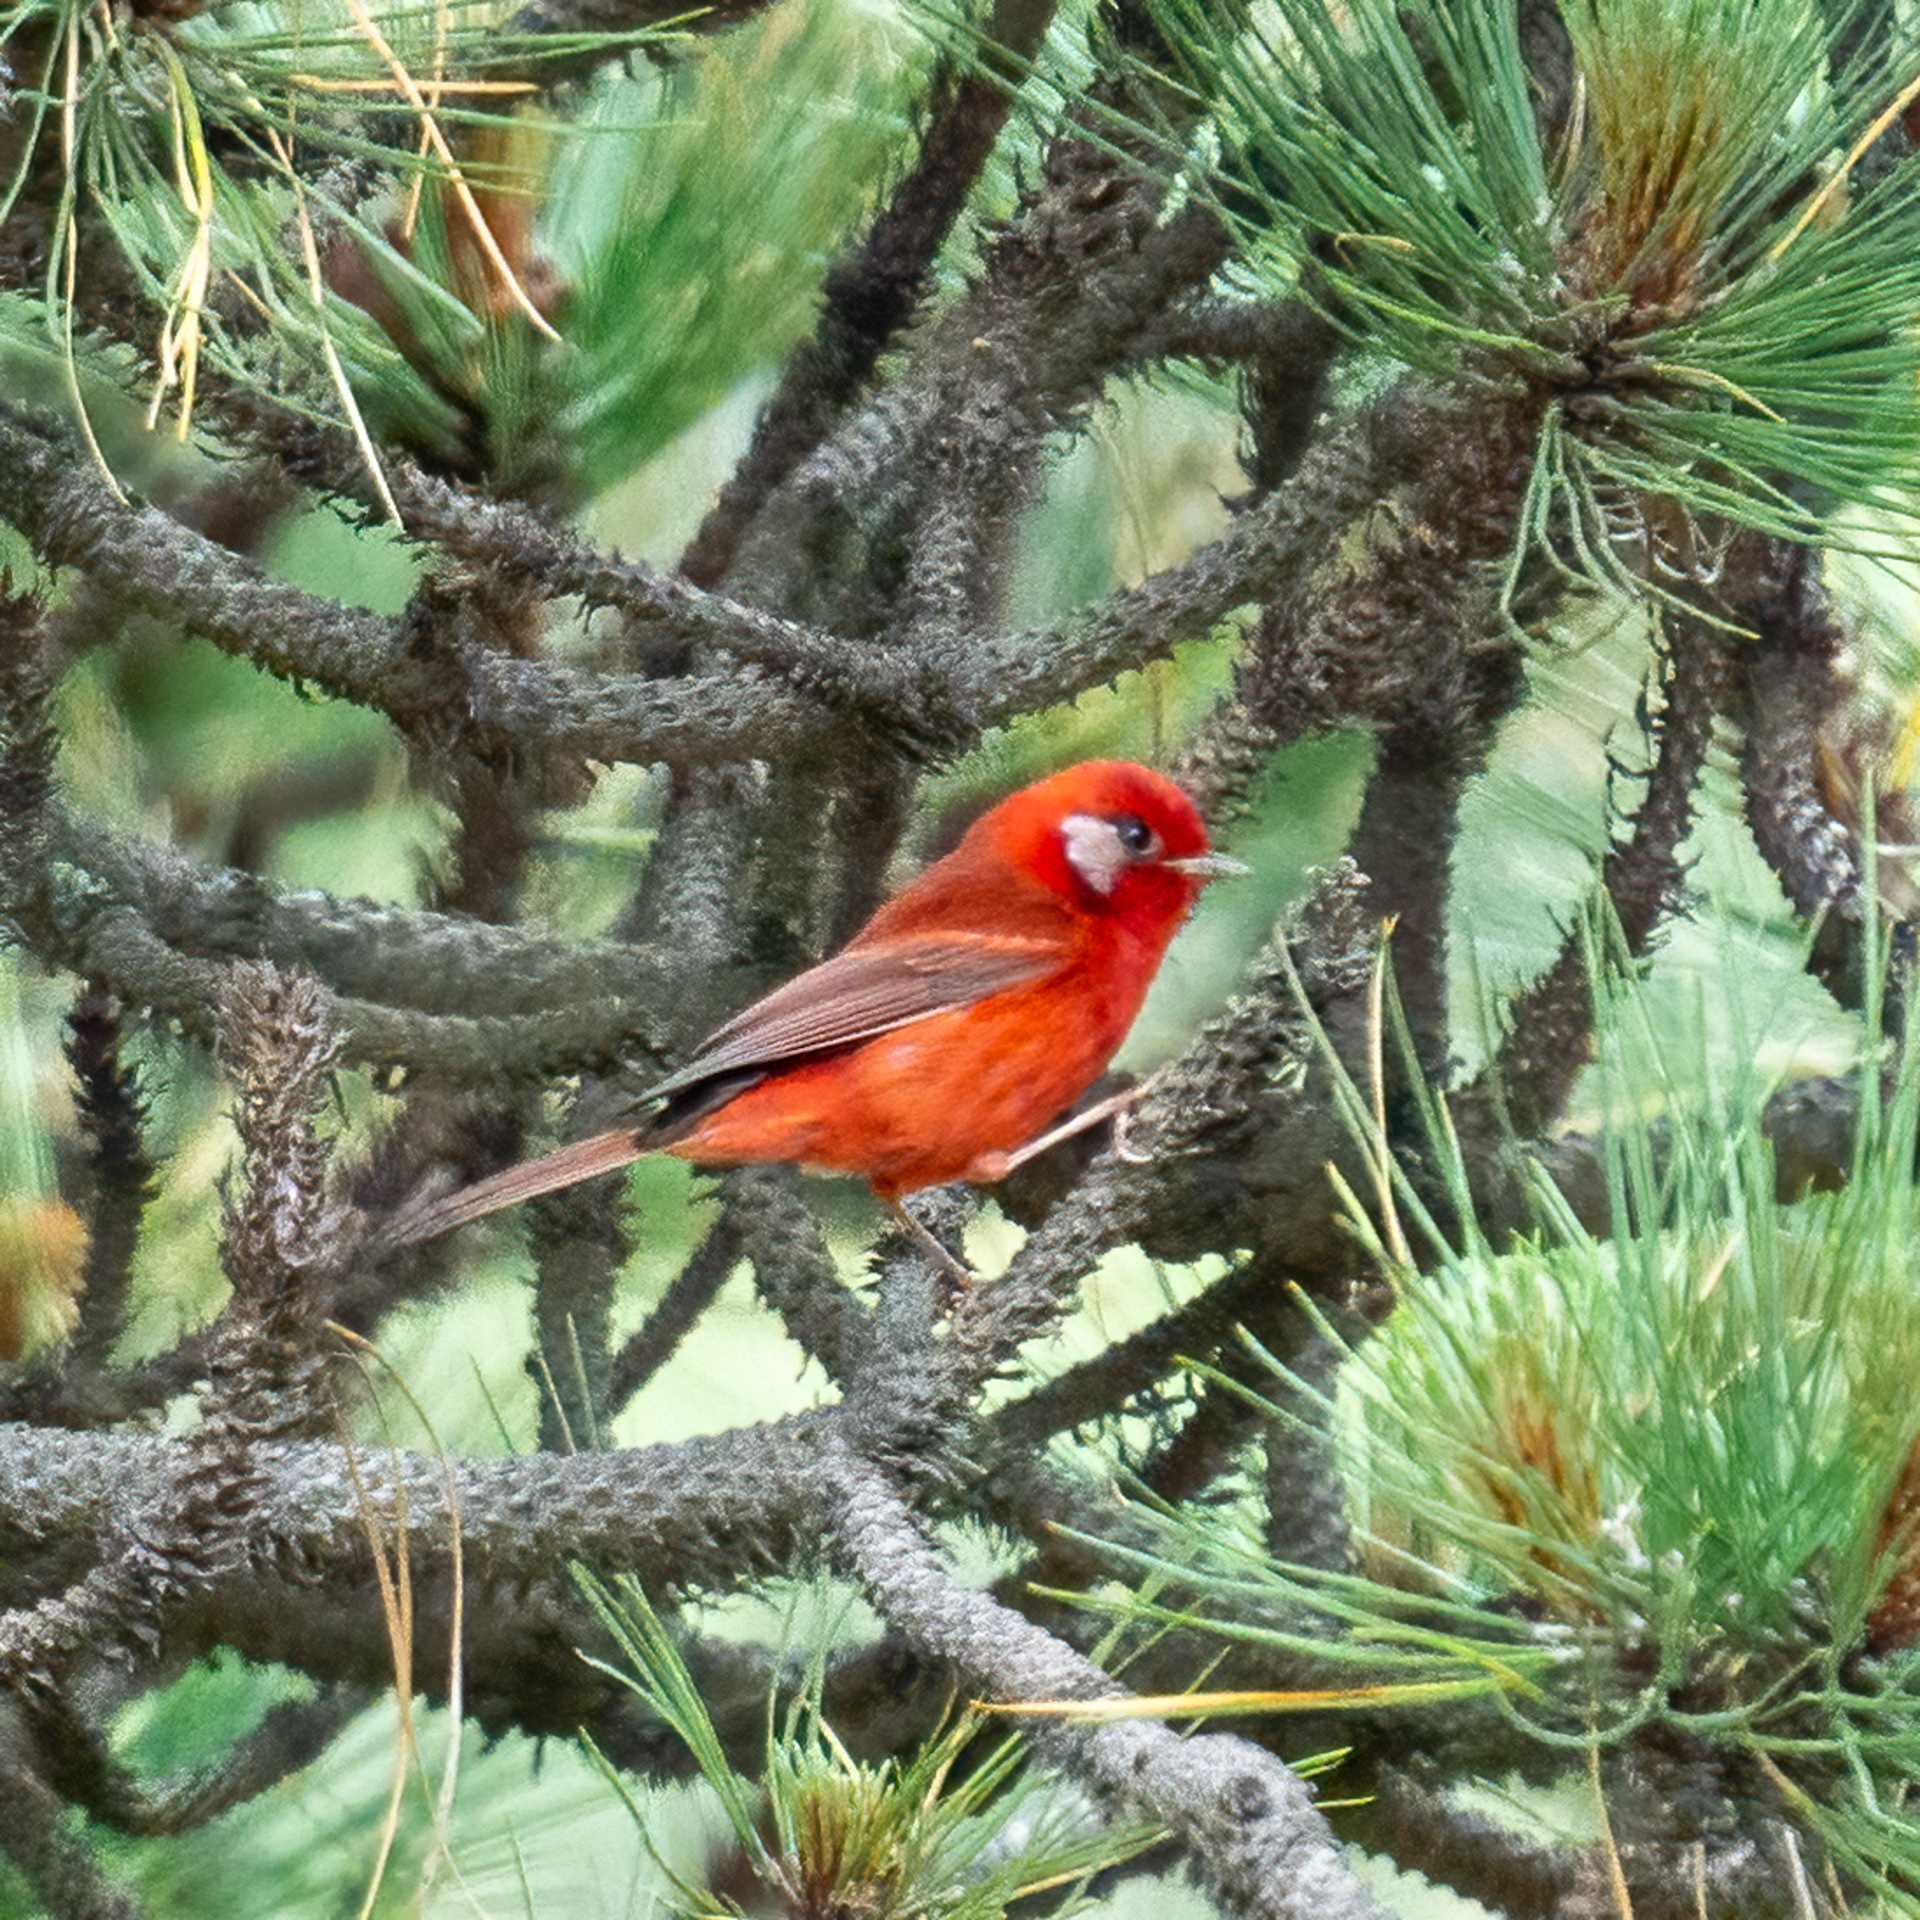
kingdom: Animalia
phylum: Chordata
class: Aves
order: Passeriformes
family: Parulidae
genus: Cardellina
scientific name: Cardellina rubra
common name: Red warbler
